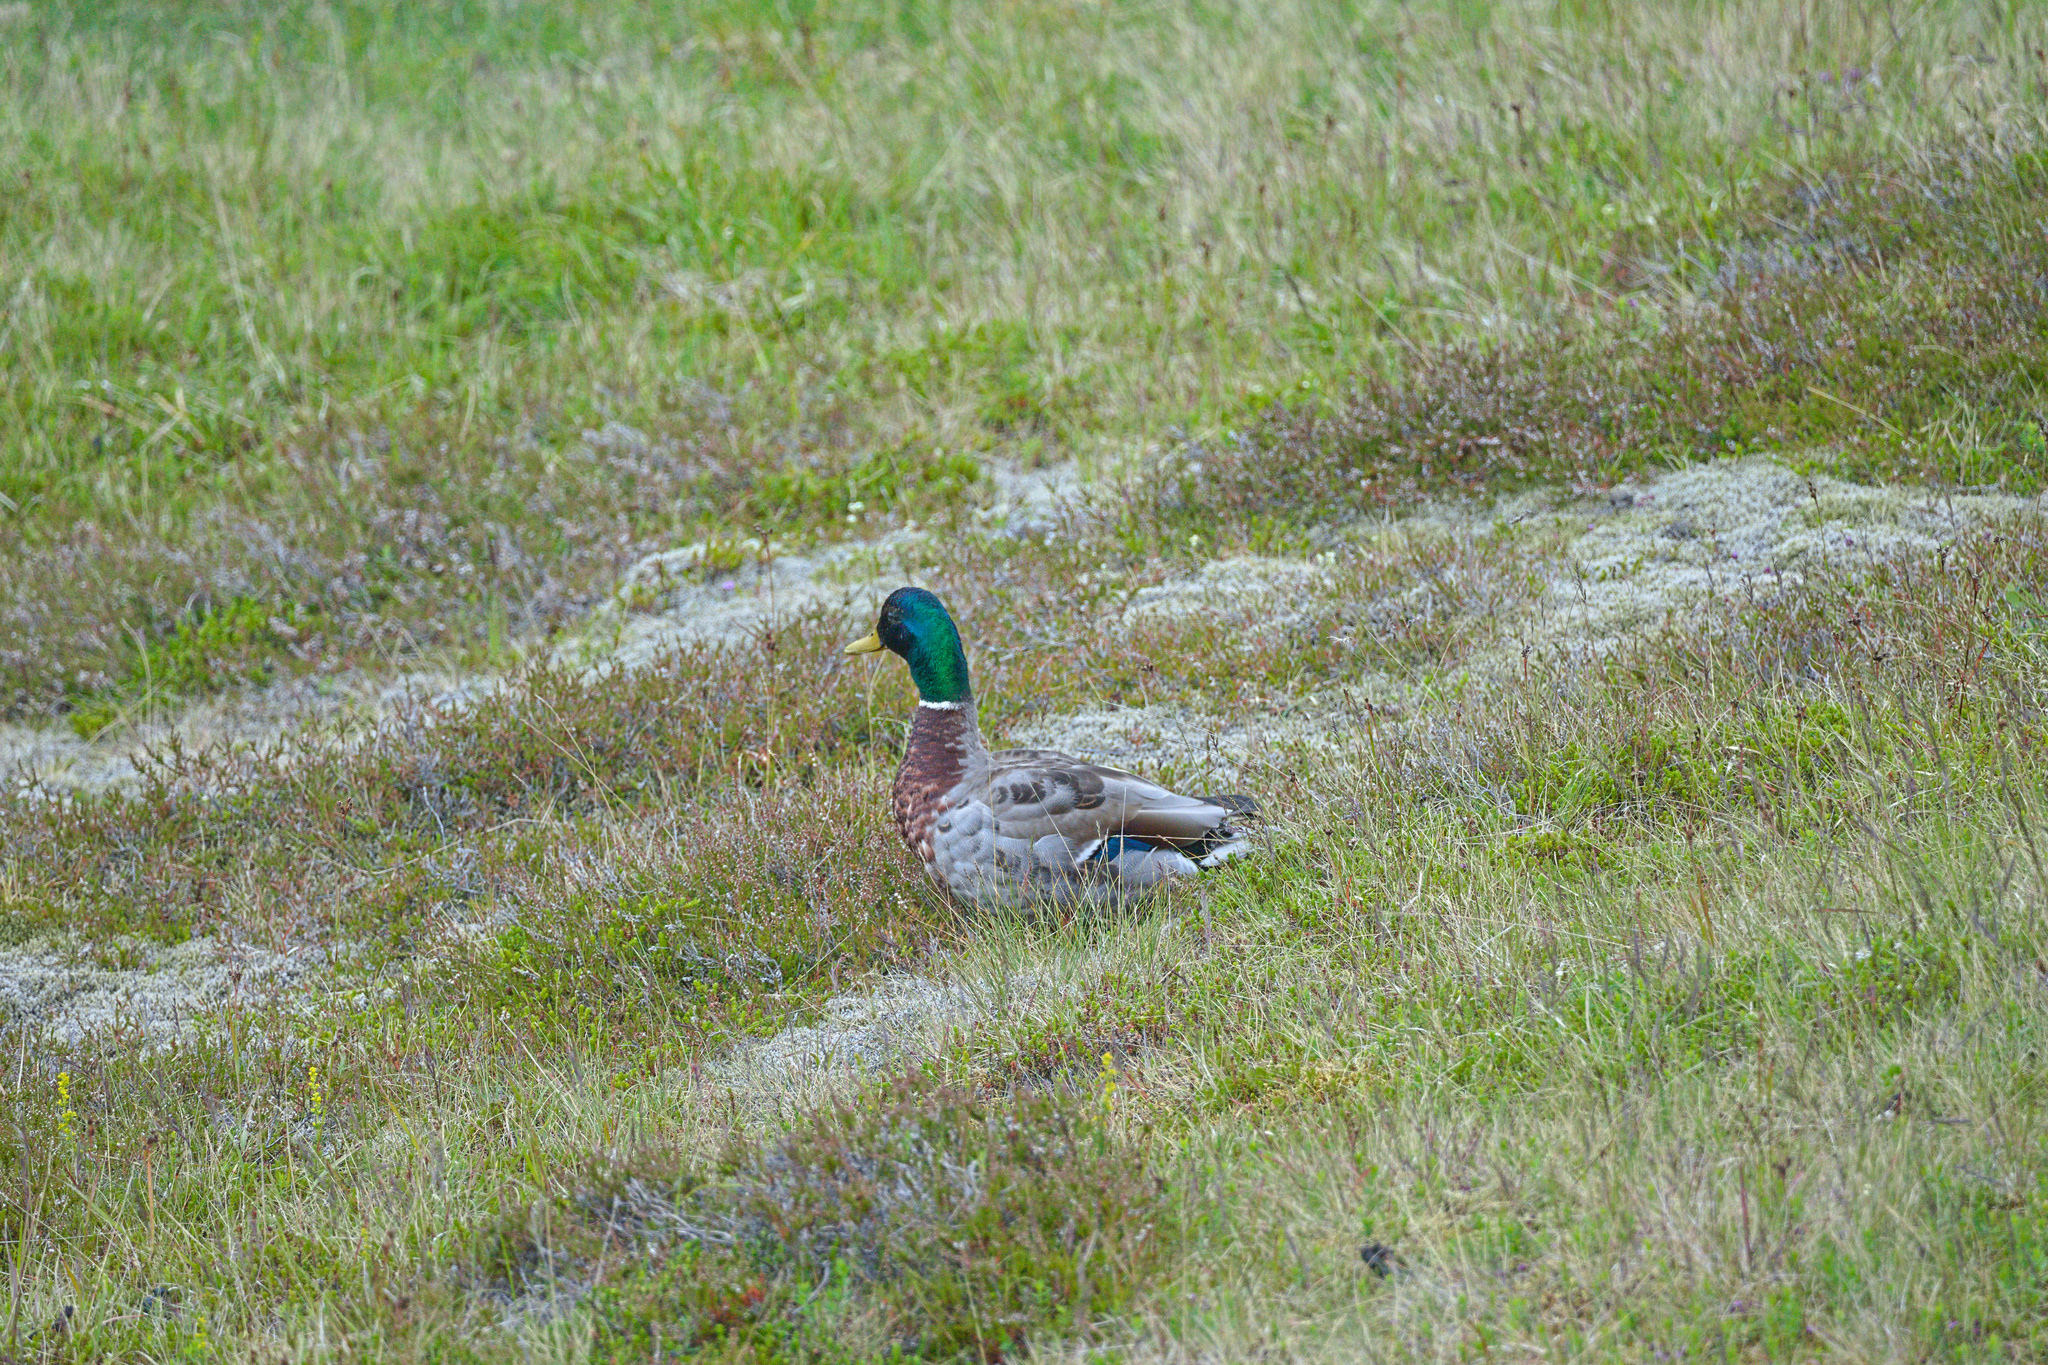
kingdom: Animalia
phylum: Chordata
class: Aves
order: Anseriformes
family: Anatidae
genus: Anas
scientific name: Anas platyrhynchos
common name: Mallard
